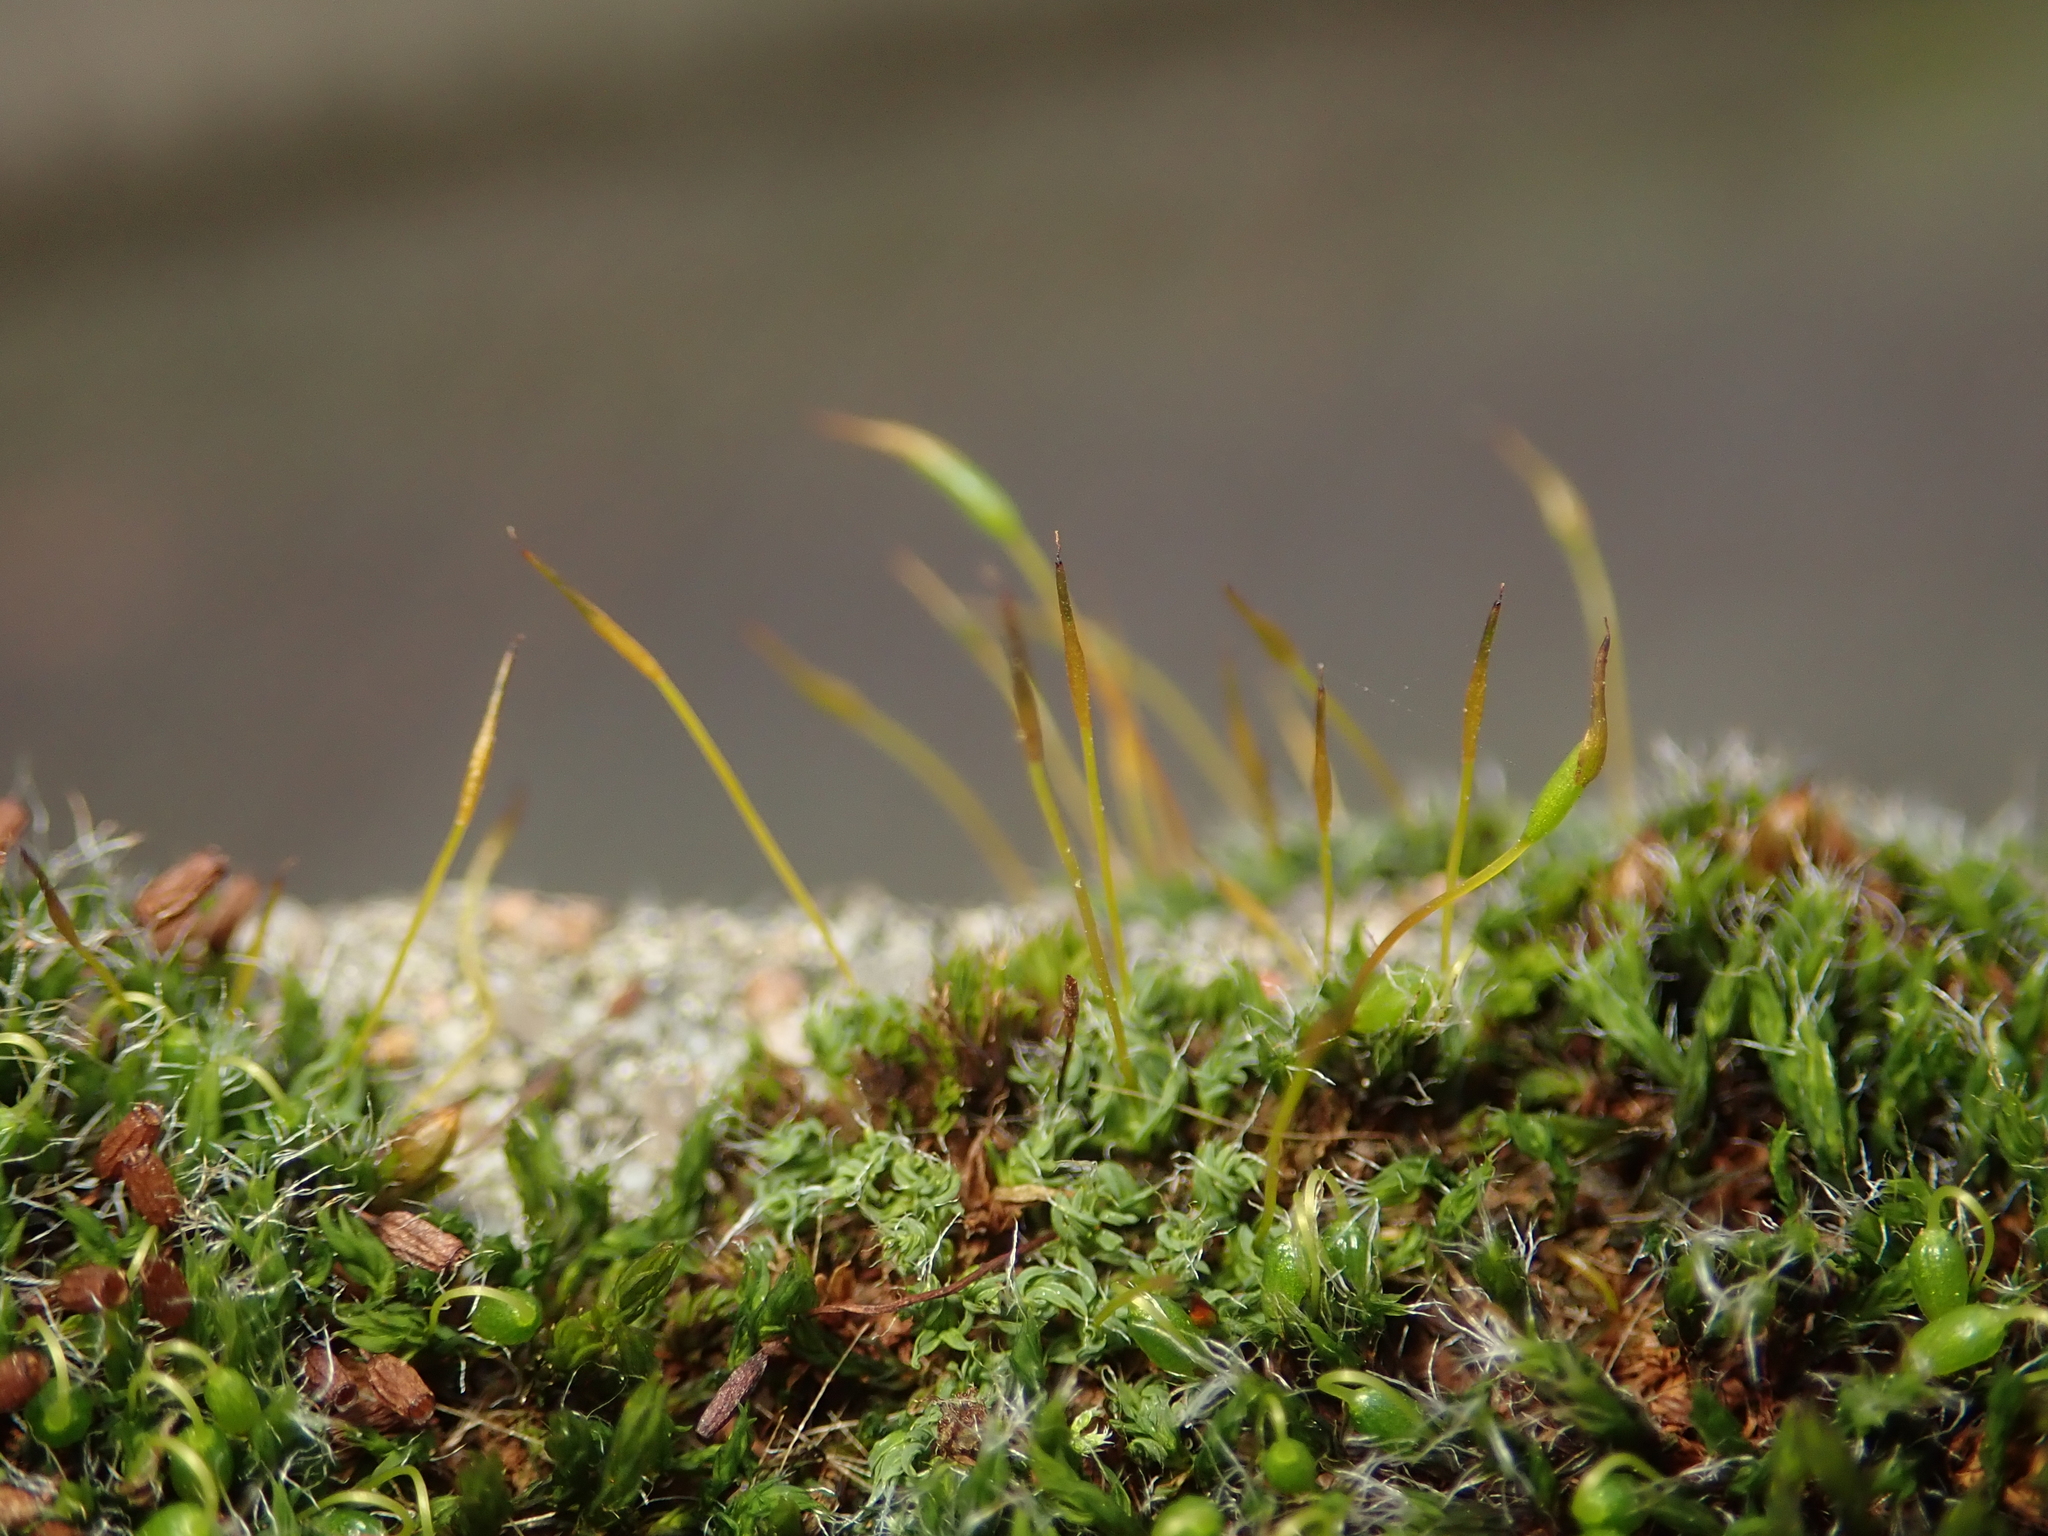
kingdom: Plantae
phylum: Bryophyta
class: Bryopsida
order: Pottiales
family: Pottiaceae
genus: Tortula
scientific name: Tortula muralis
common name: Wall screw-moss
